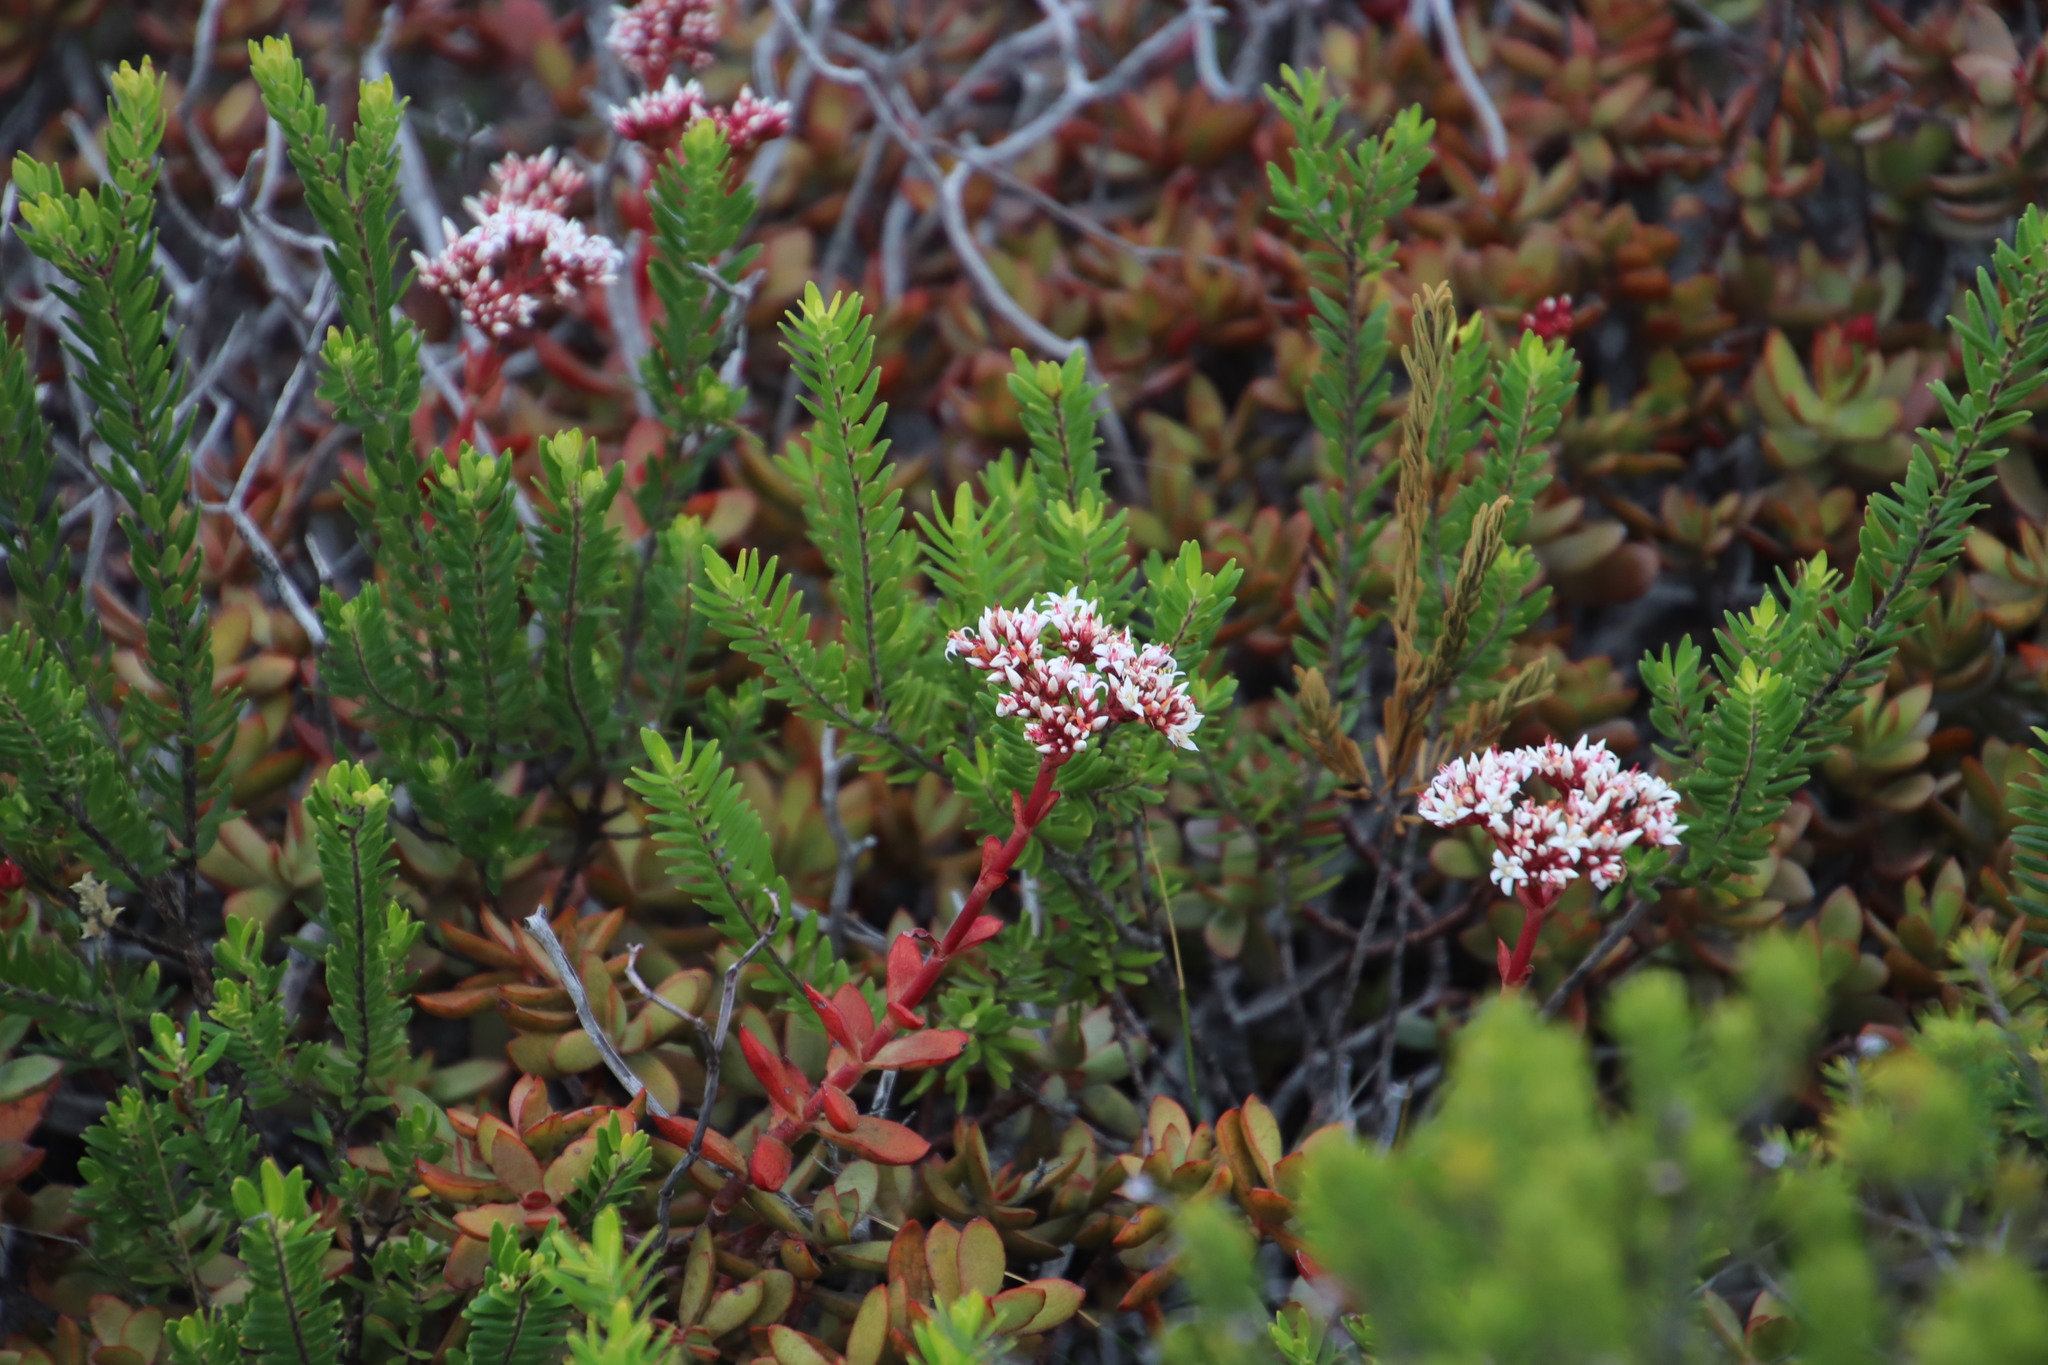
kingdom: Plantae
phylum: Tracheophyta
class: Magnoliopsida
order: Saxifragales
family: Crassulaceae
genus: Crassula
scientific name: Crassula rubricaulis
